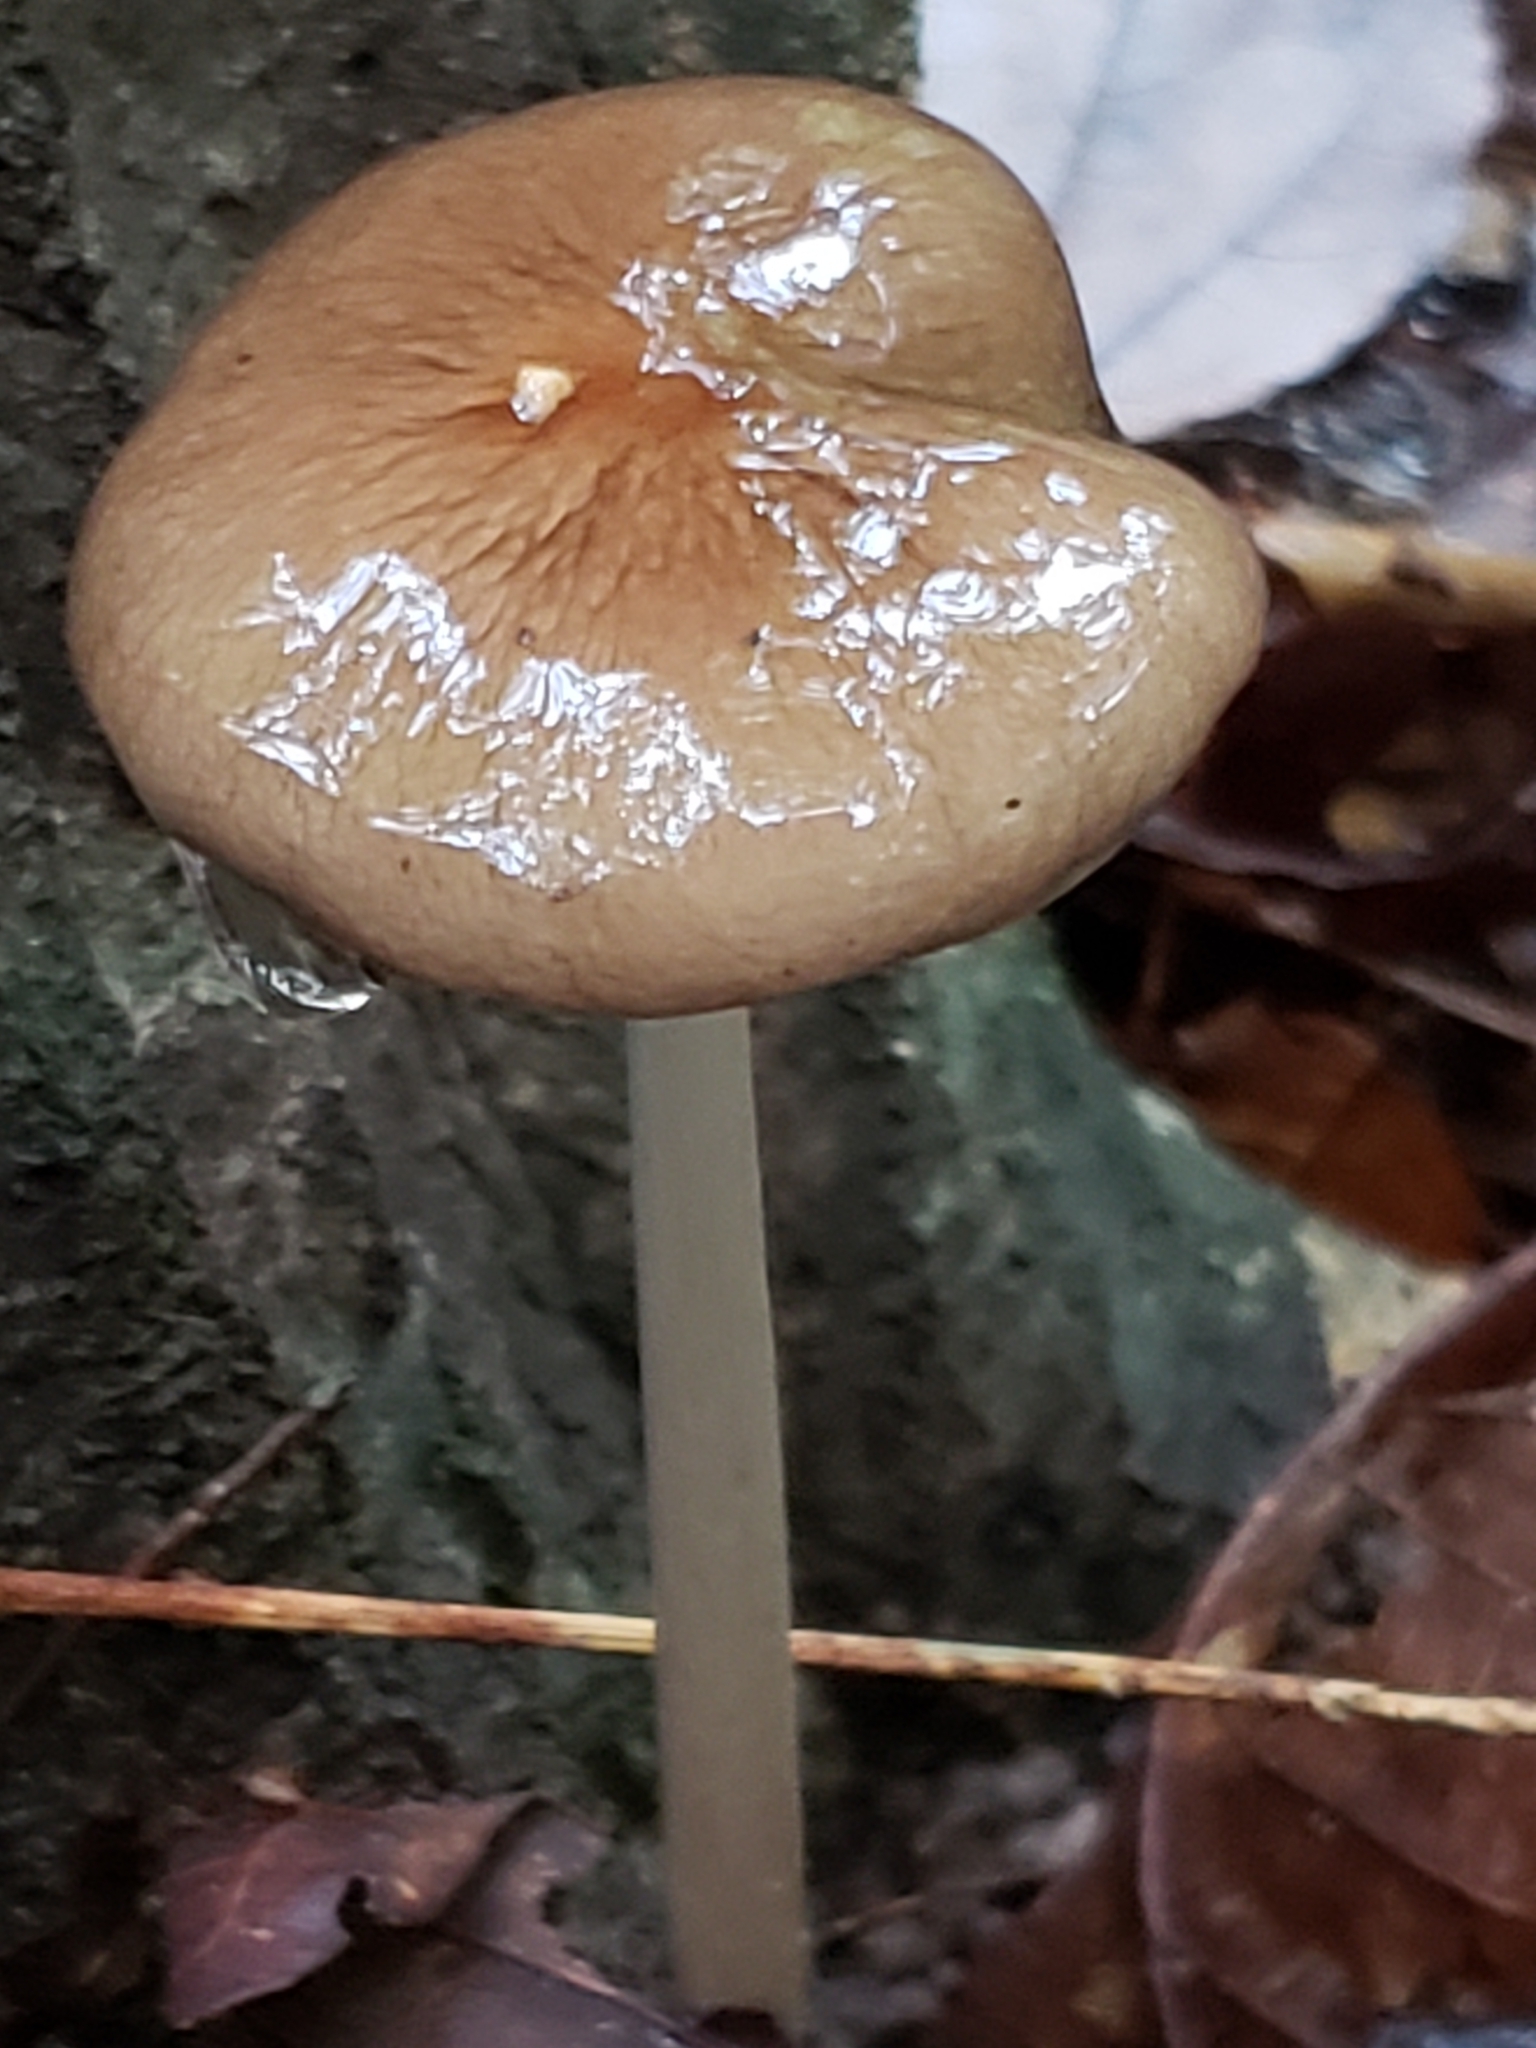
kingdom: Fungi
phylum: Basidiomycota
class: Agaricomycetes
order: Agaricales
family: Physalacriaceae
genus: Hymenopellis
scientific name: Hymenopellis furfuracea
